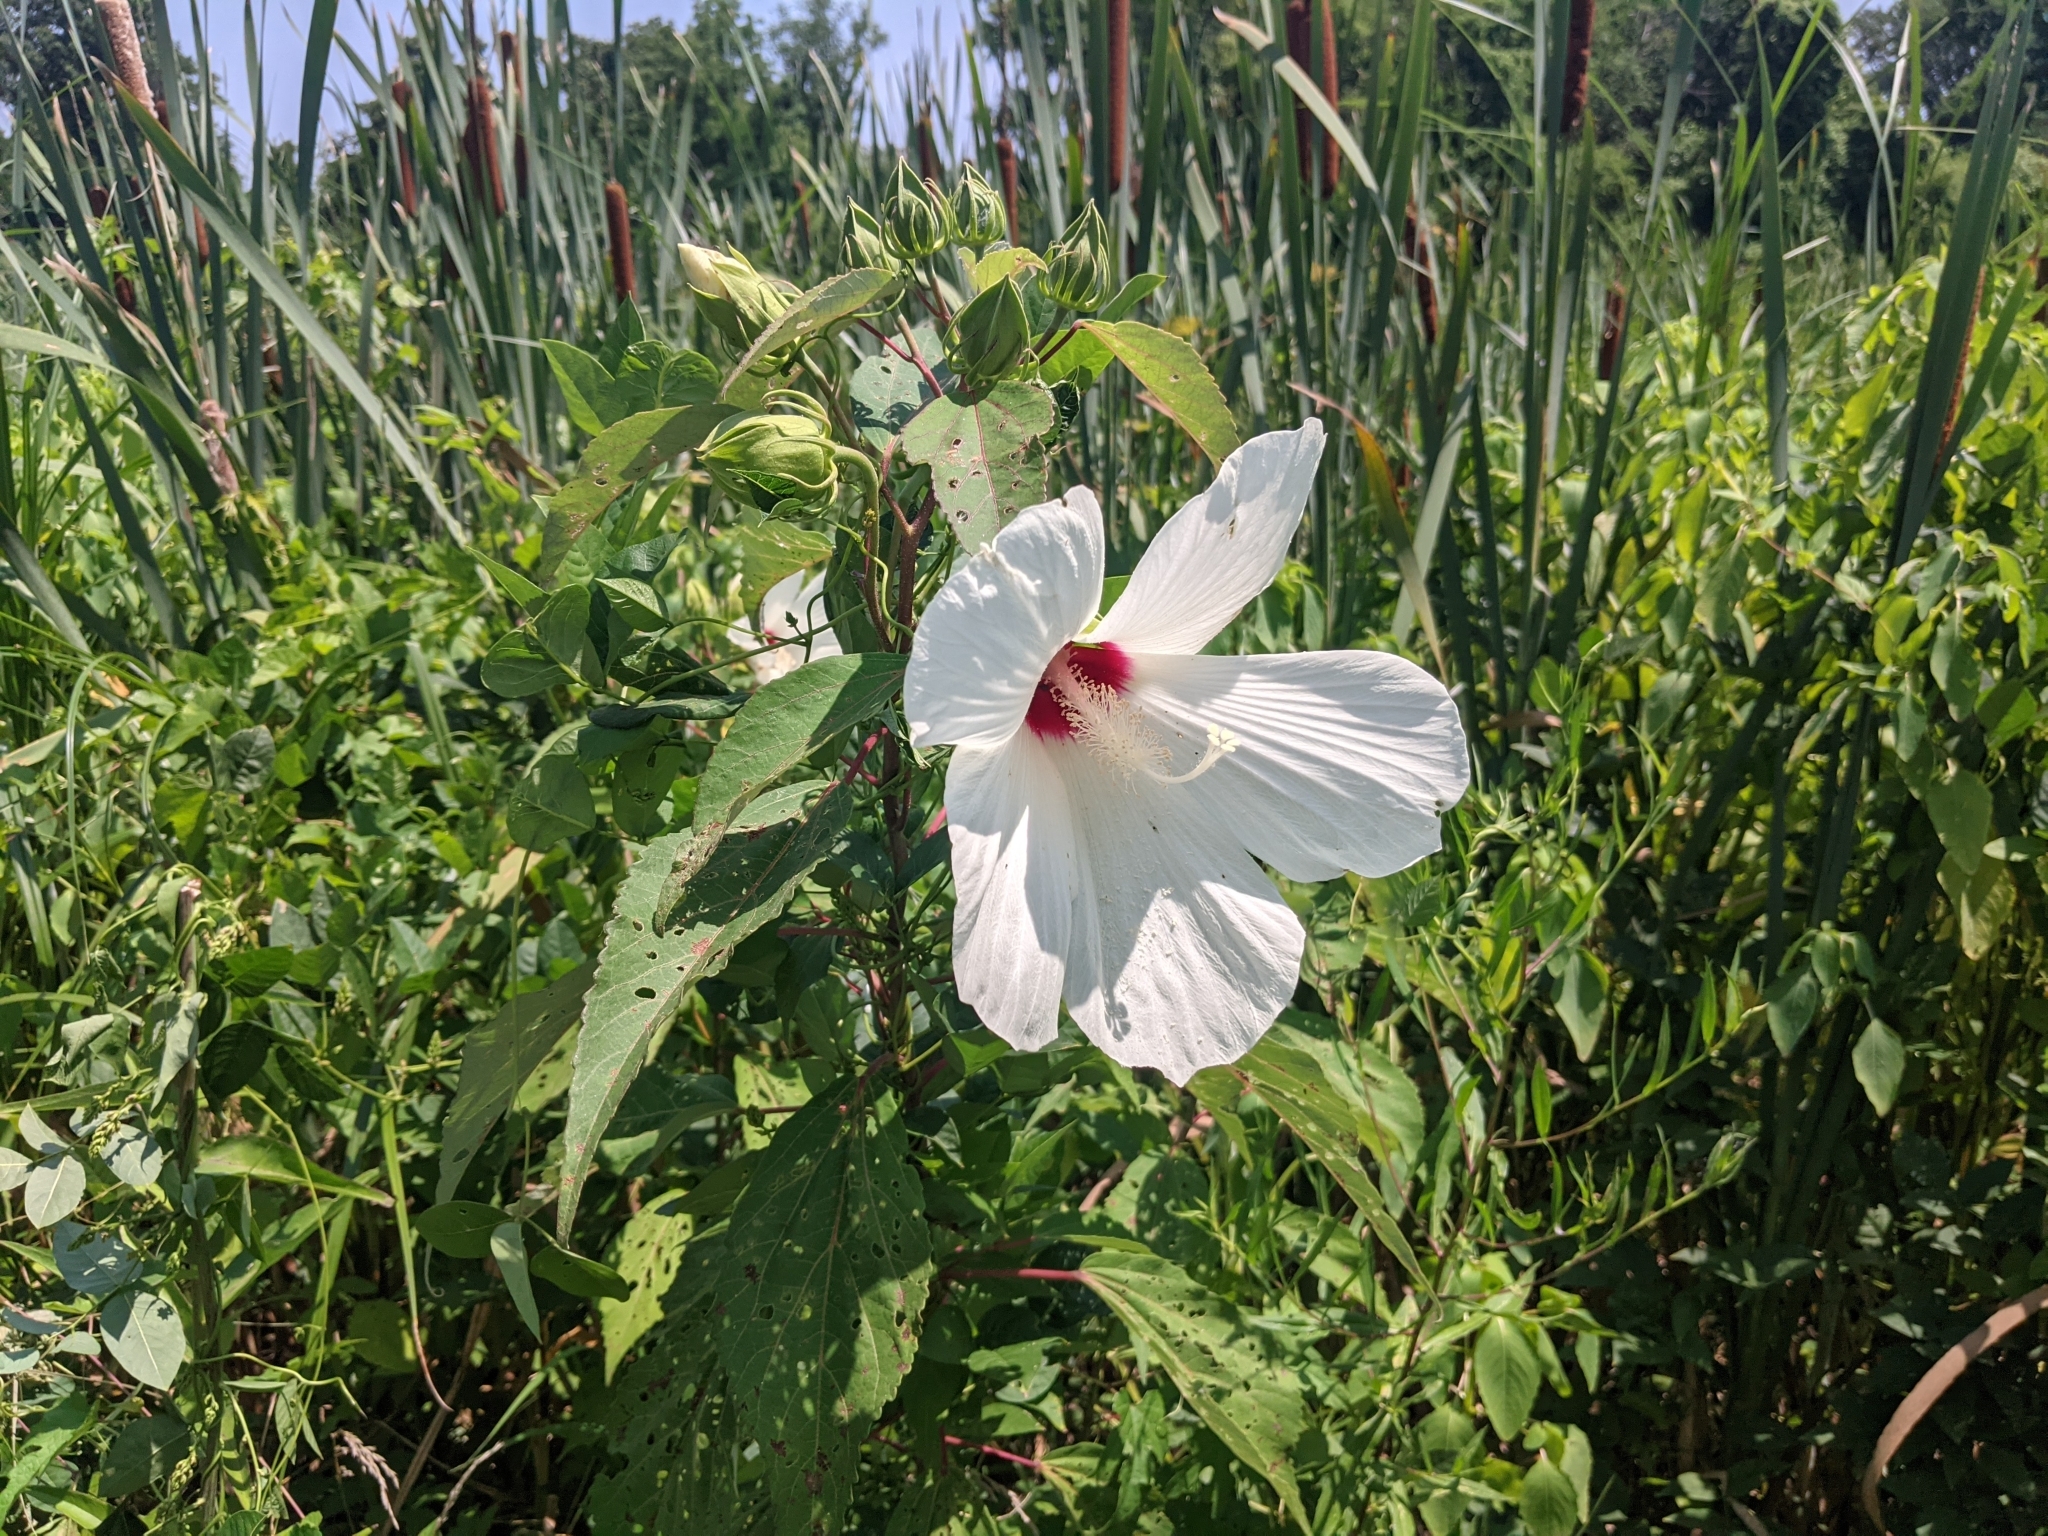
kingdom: Plantae
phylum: Tracheophyta
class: Magnoliopsida
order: Malvales
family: Malvaceae
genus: Hibiscus
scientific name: Hibiscus moscheutos
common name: Common rose-mallow
